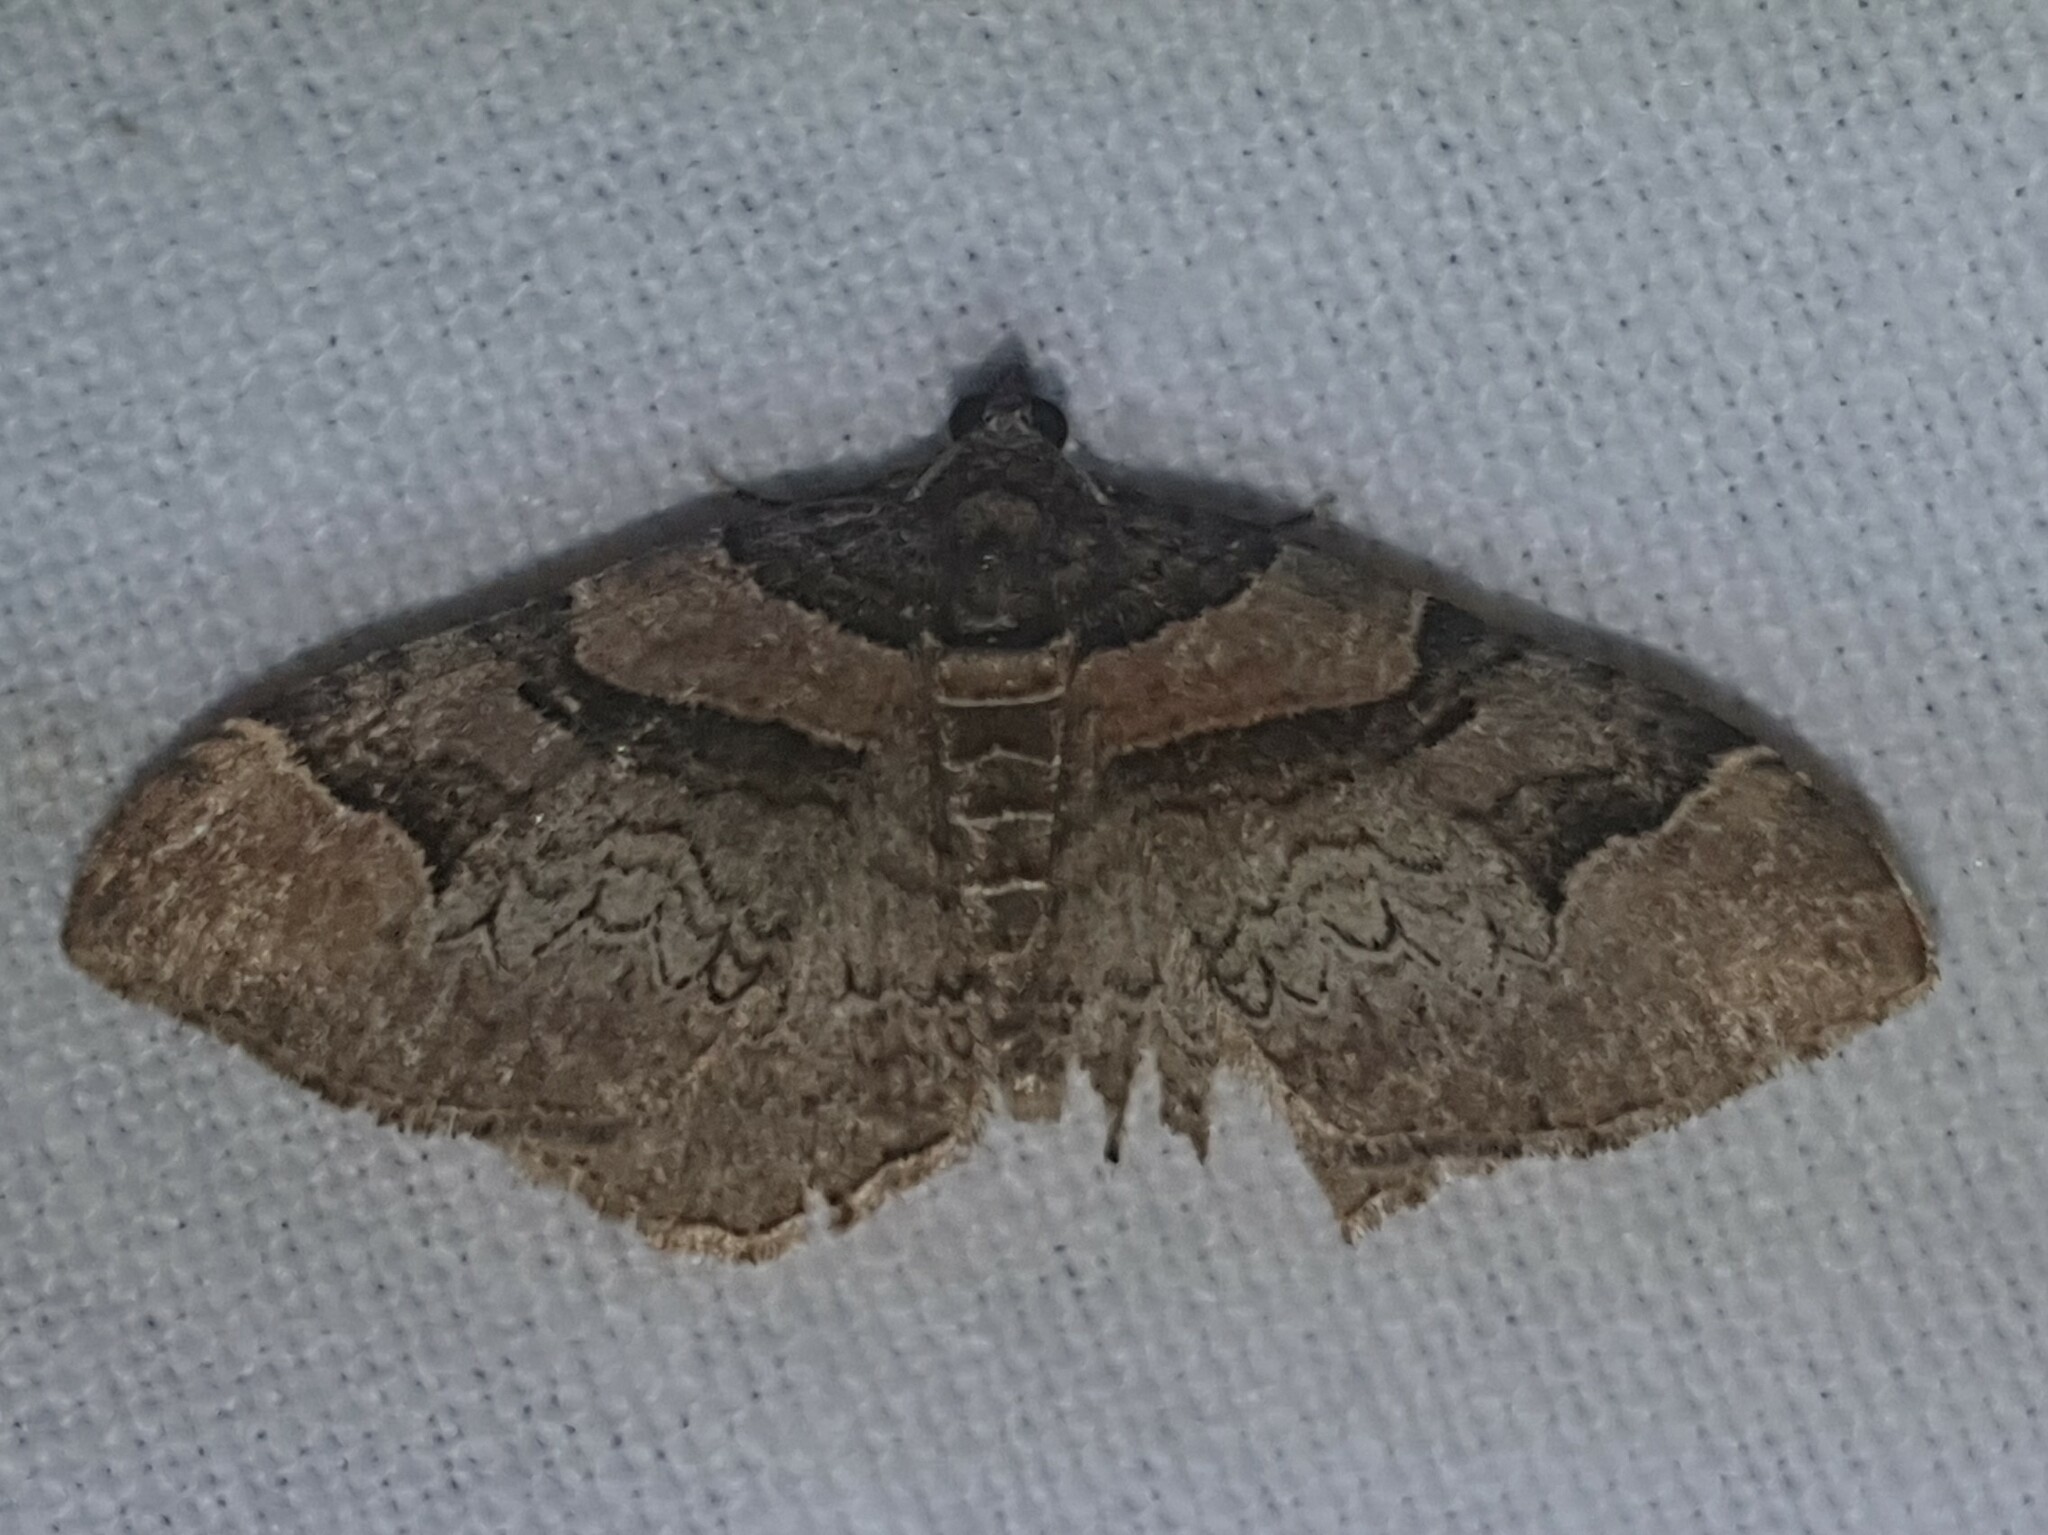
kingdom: Animalia
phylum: Arthropoda
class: Insecta
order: Lepidoptera
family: Geometridae
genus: Catarhoe
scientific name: Catarhoe rubidata
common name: Ruddy carpet
